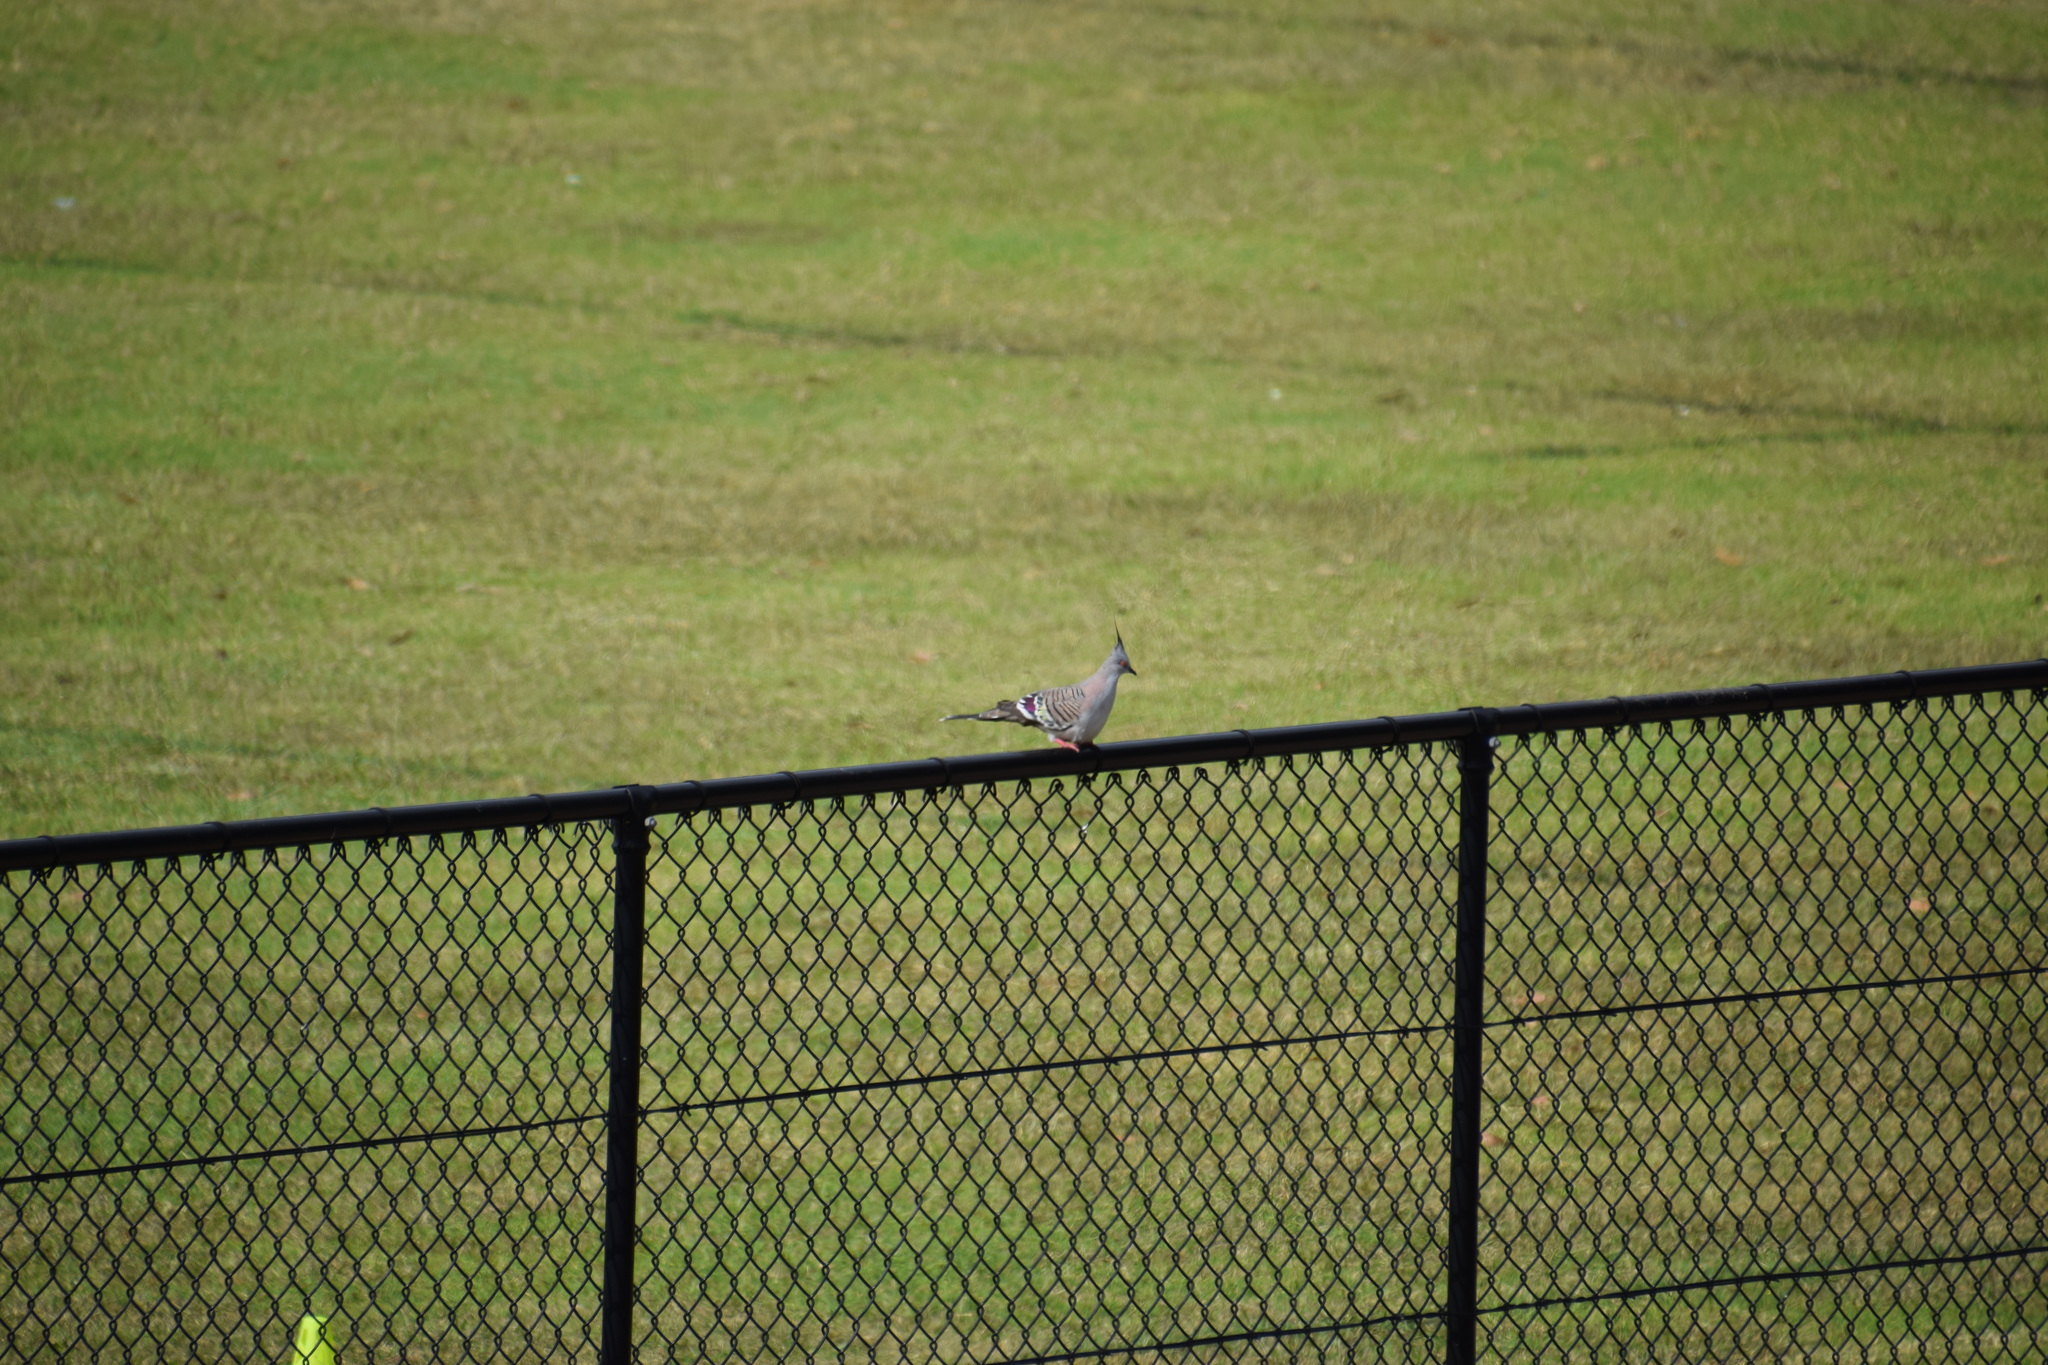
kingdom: Animalia
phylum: Chordata
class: Aves
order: Columbiformes
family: Columbidae
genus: Ocyphaps
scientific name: Ocyphaps lophotes
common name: Crested pigeon
